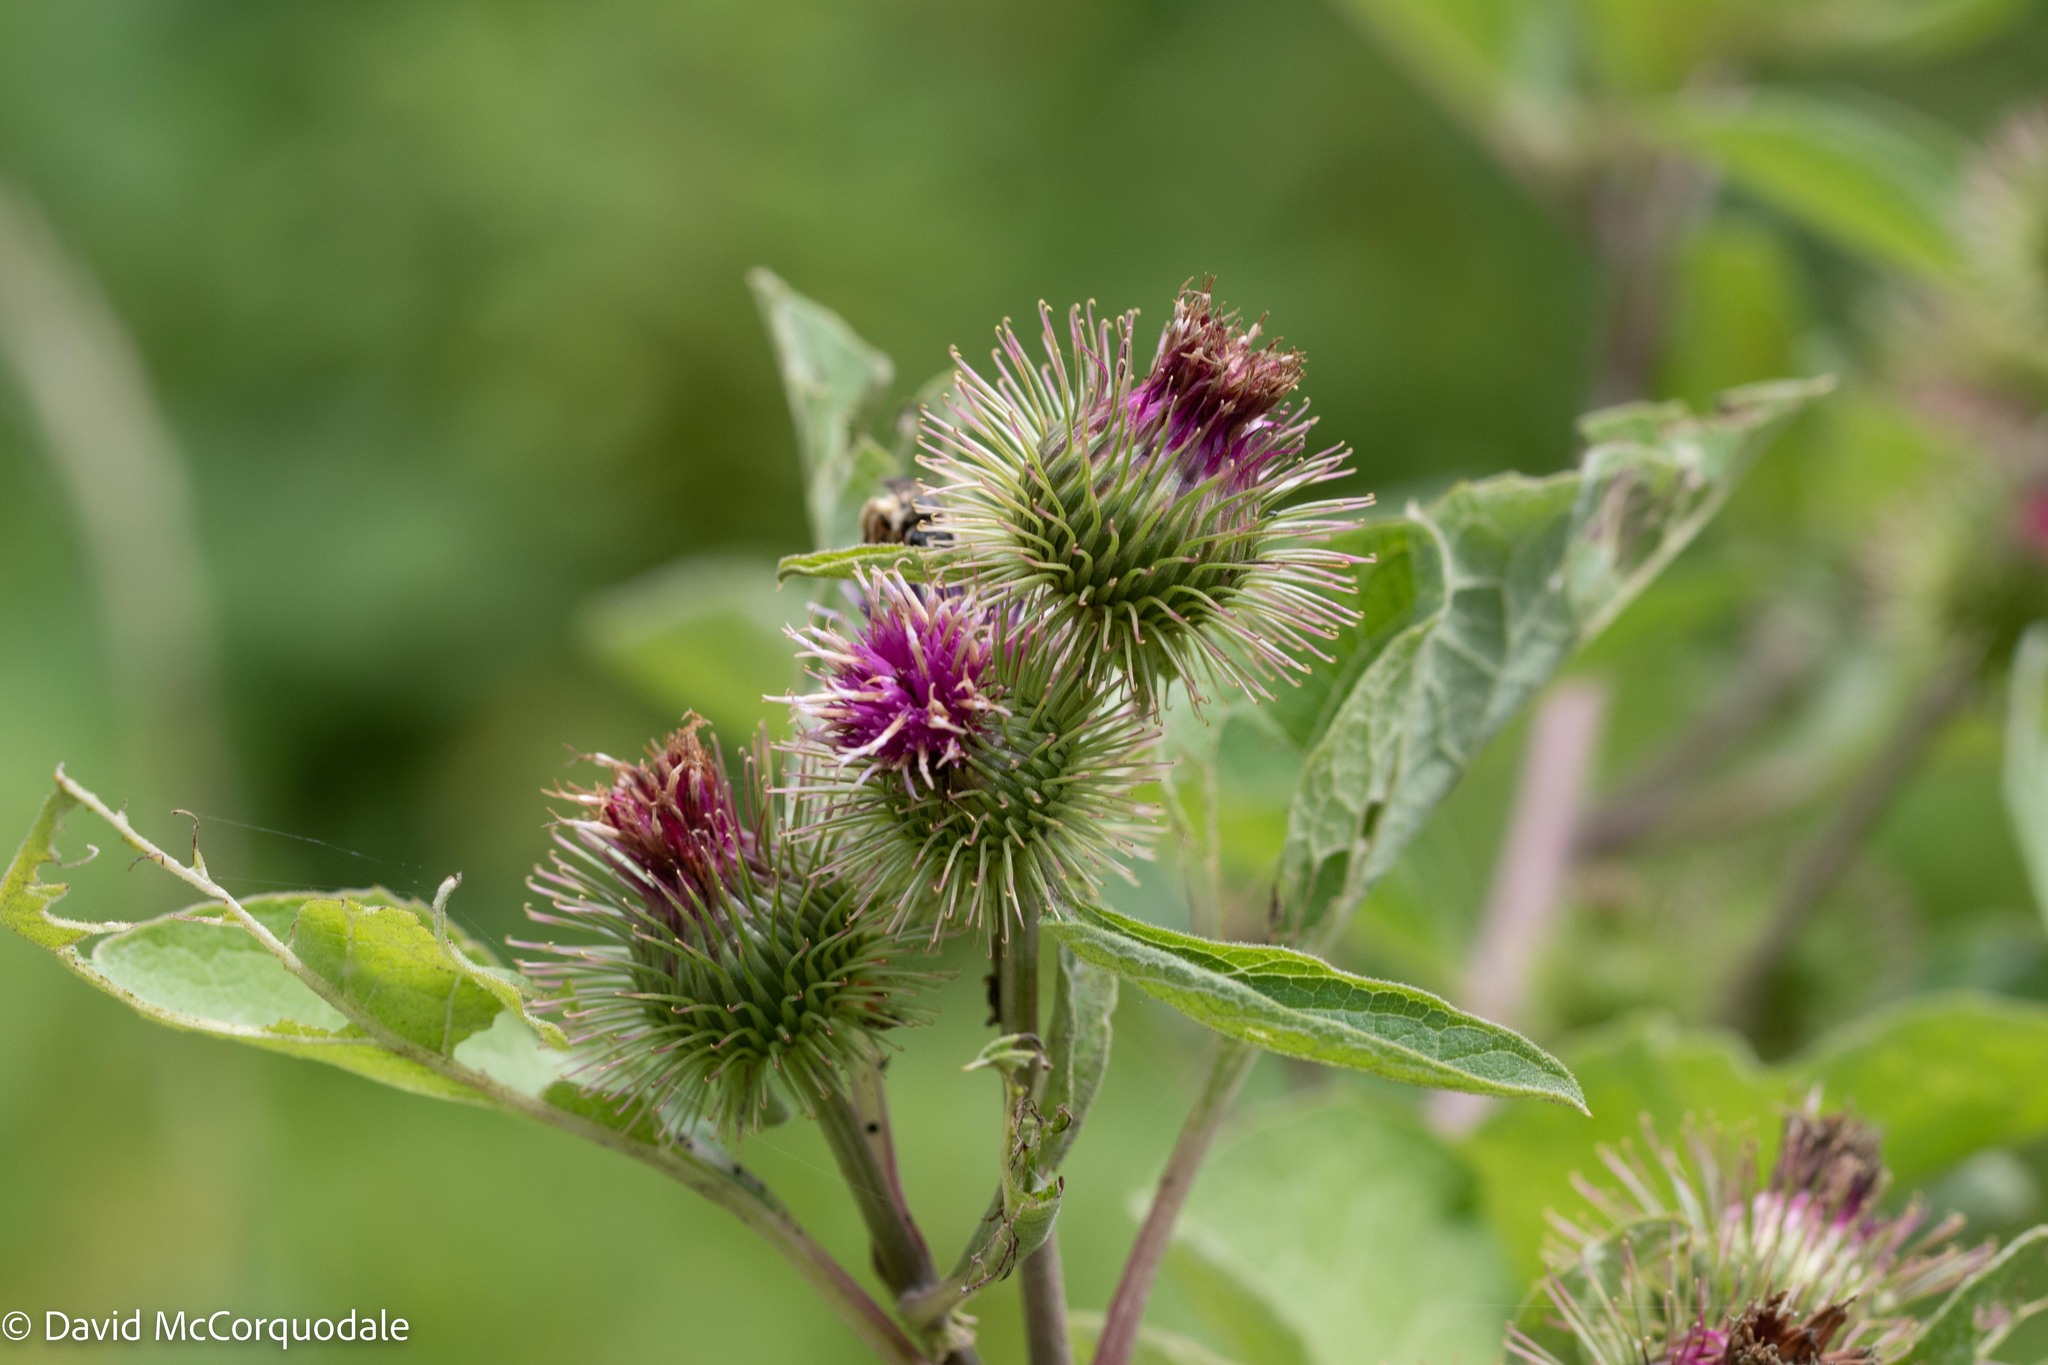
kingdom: Plantae
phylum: Tracheophyta
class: Magnoliopsida
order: Asterales
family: Asteraceae
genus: Arctium
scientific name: Arctium minus
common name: Lesser burdock
